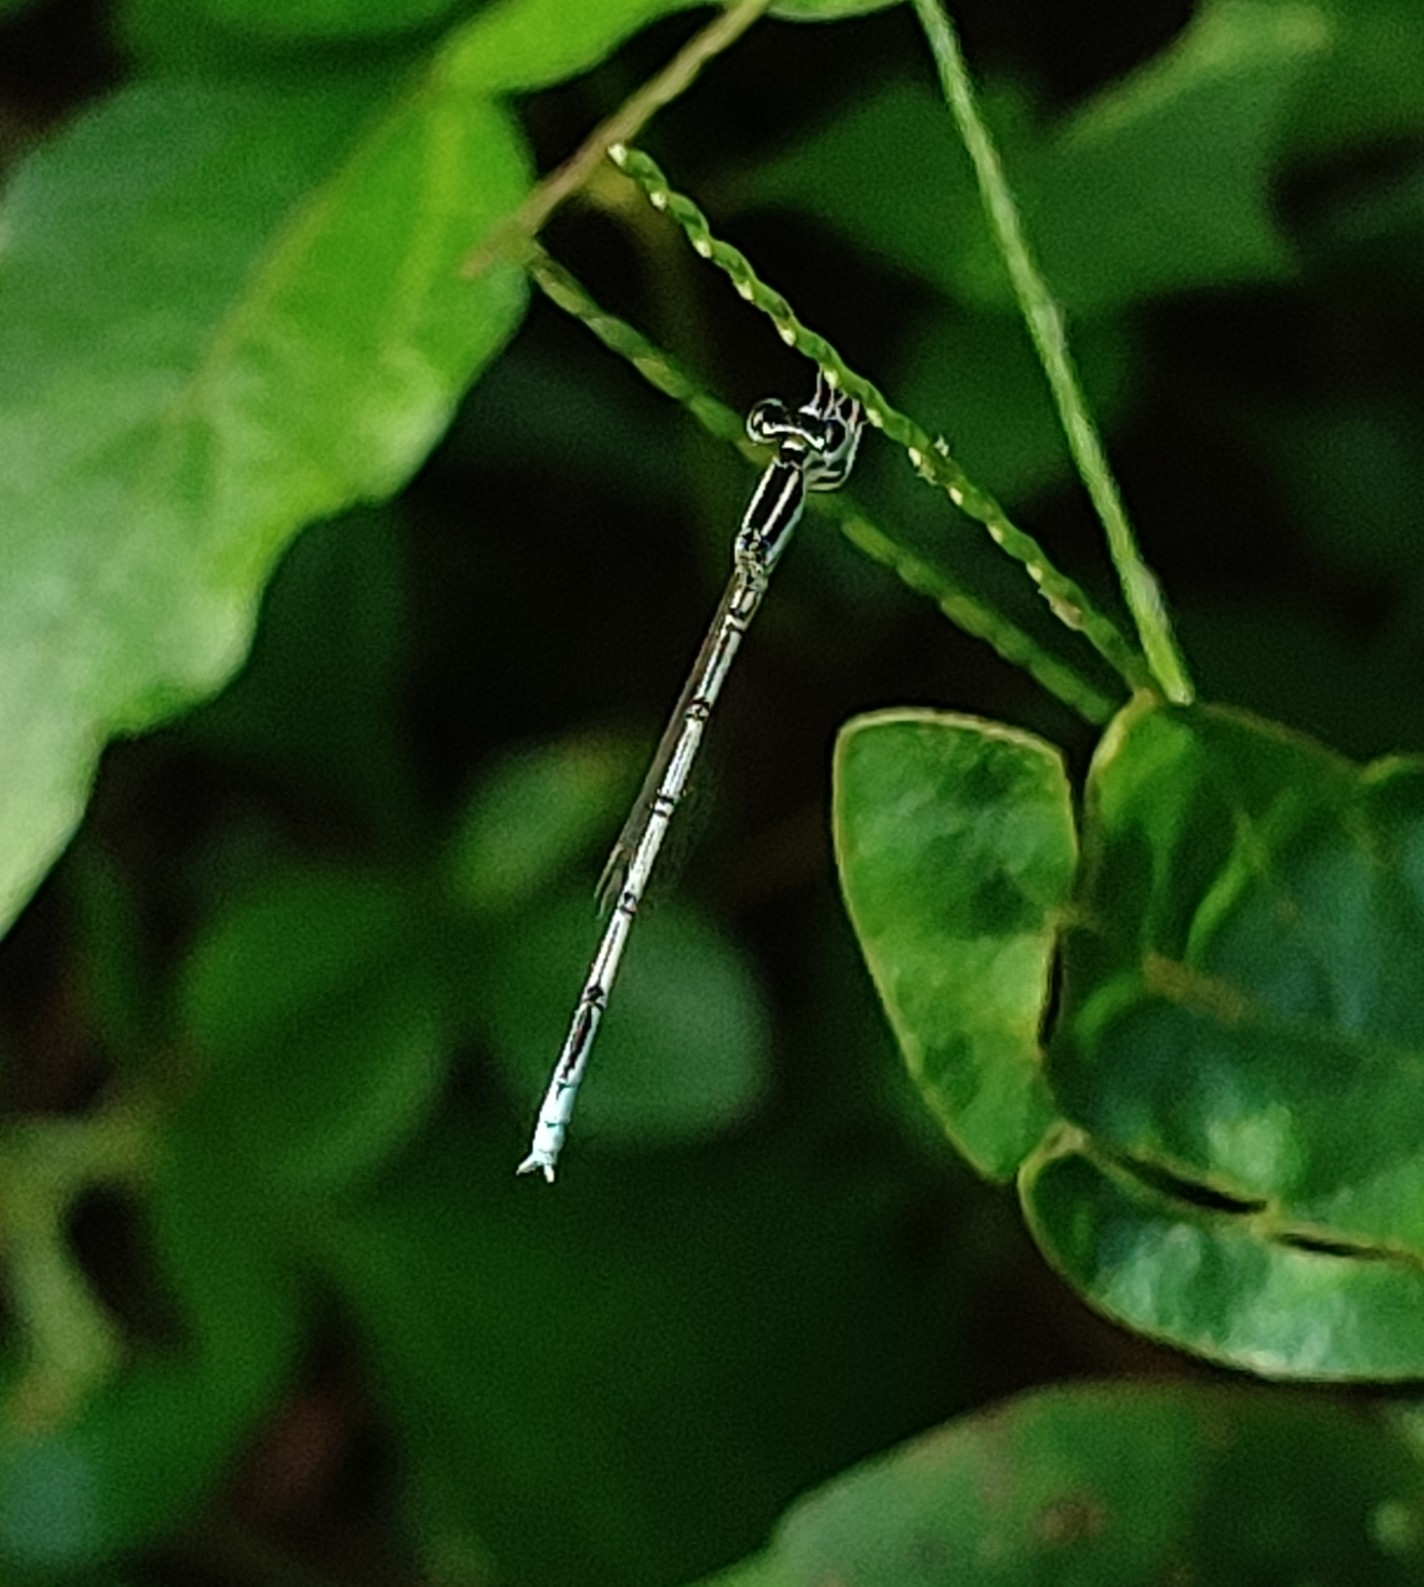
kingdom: Animalia
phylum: Arthropoda
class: Insecta
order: Odonata
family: Coenagrionidae
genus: Agriocnemis
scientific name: Agriocnemis pieris
